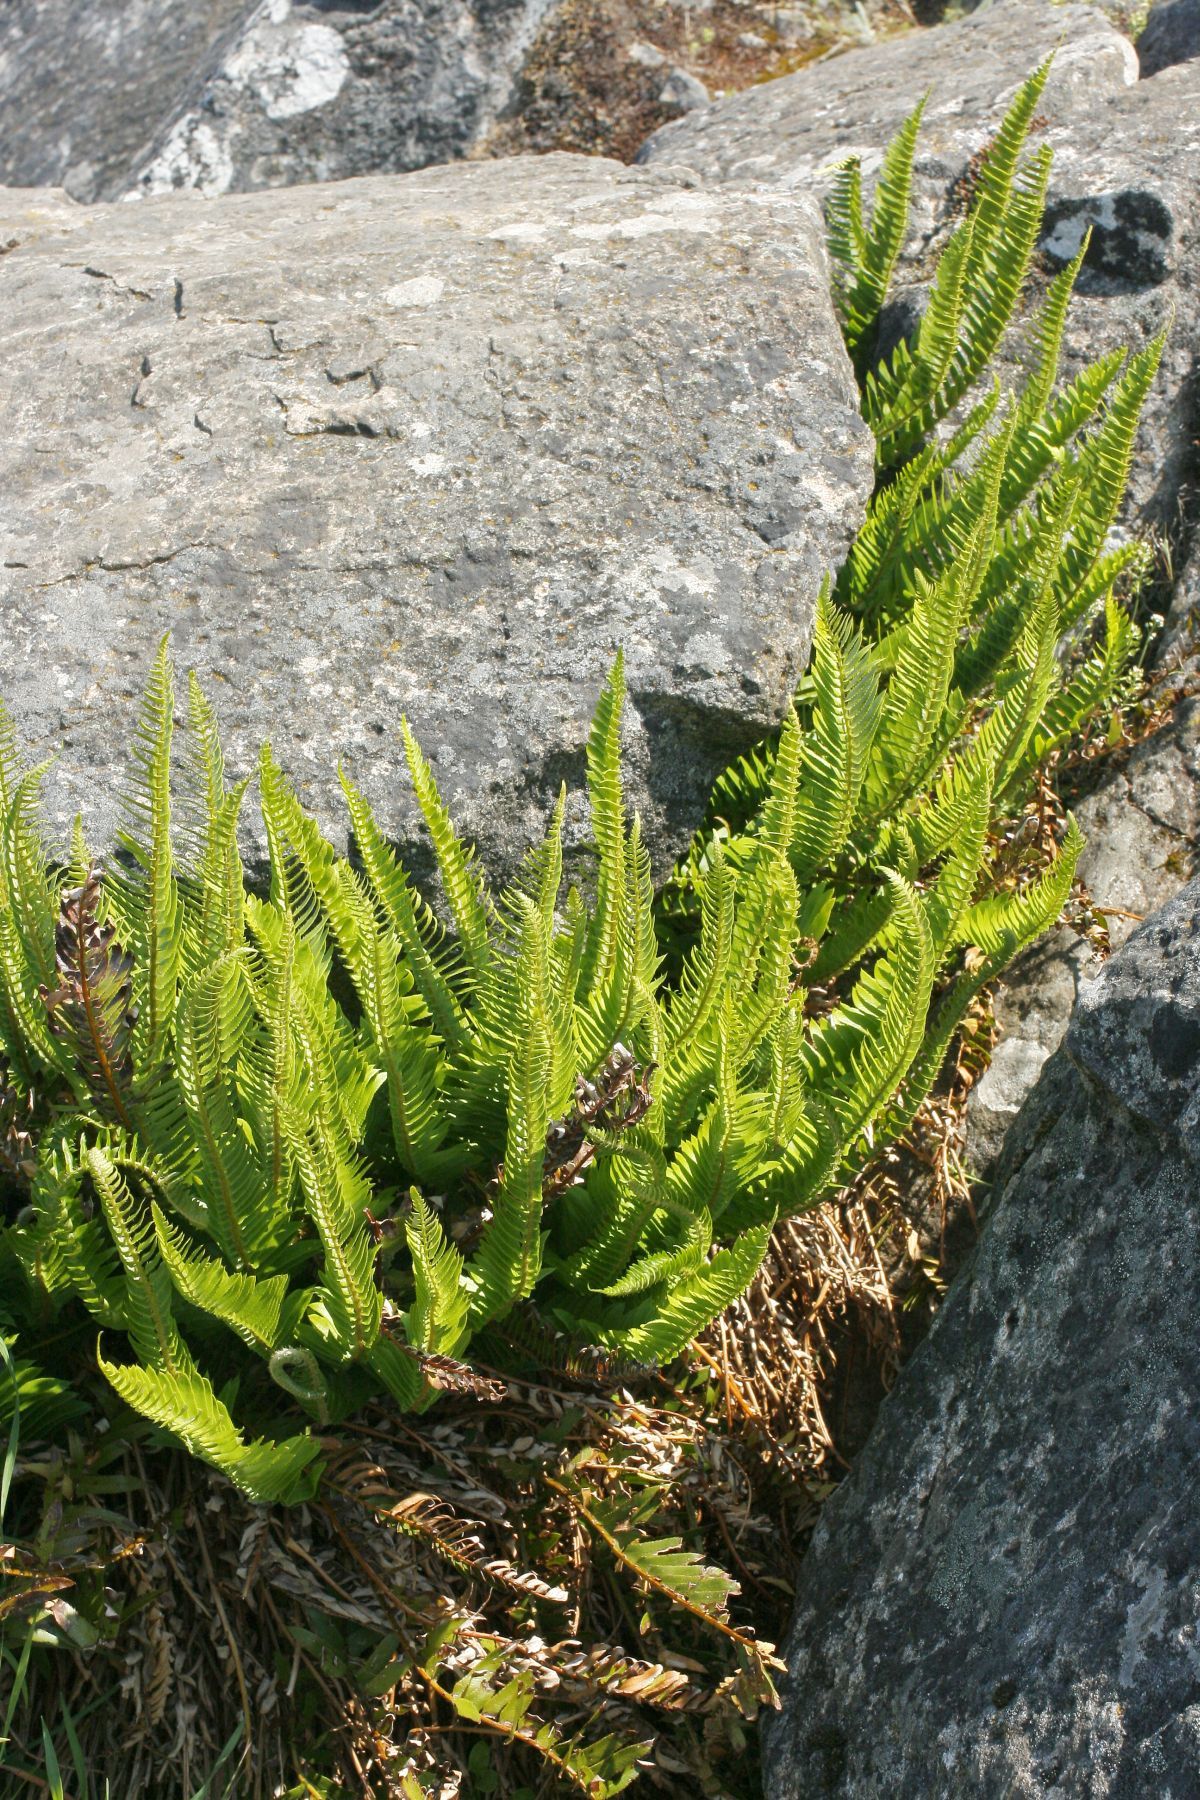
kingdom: Plantae
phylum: Tracheophyta
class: Polypodiopsida
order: Polypodiales
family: Dryopteridaceae
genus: Polystichum
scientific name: Polystichum imbricans
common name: Dwarf western sword fern
